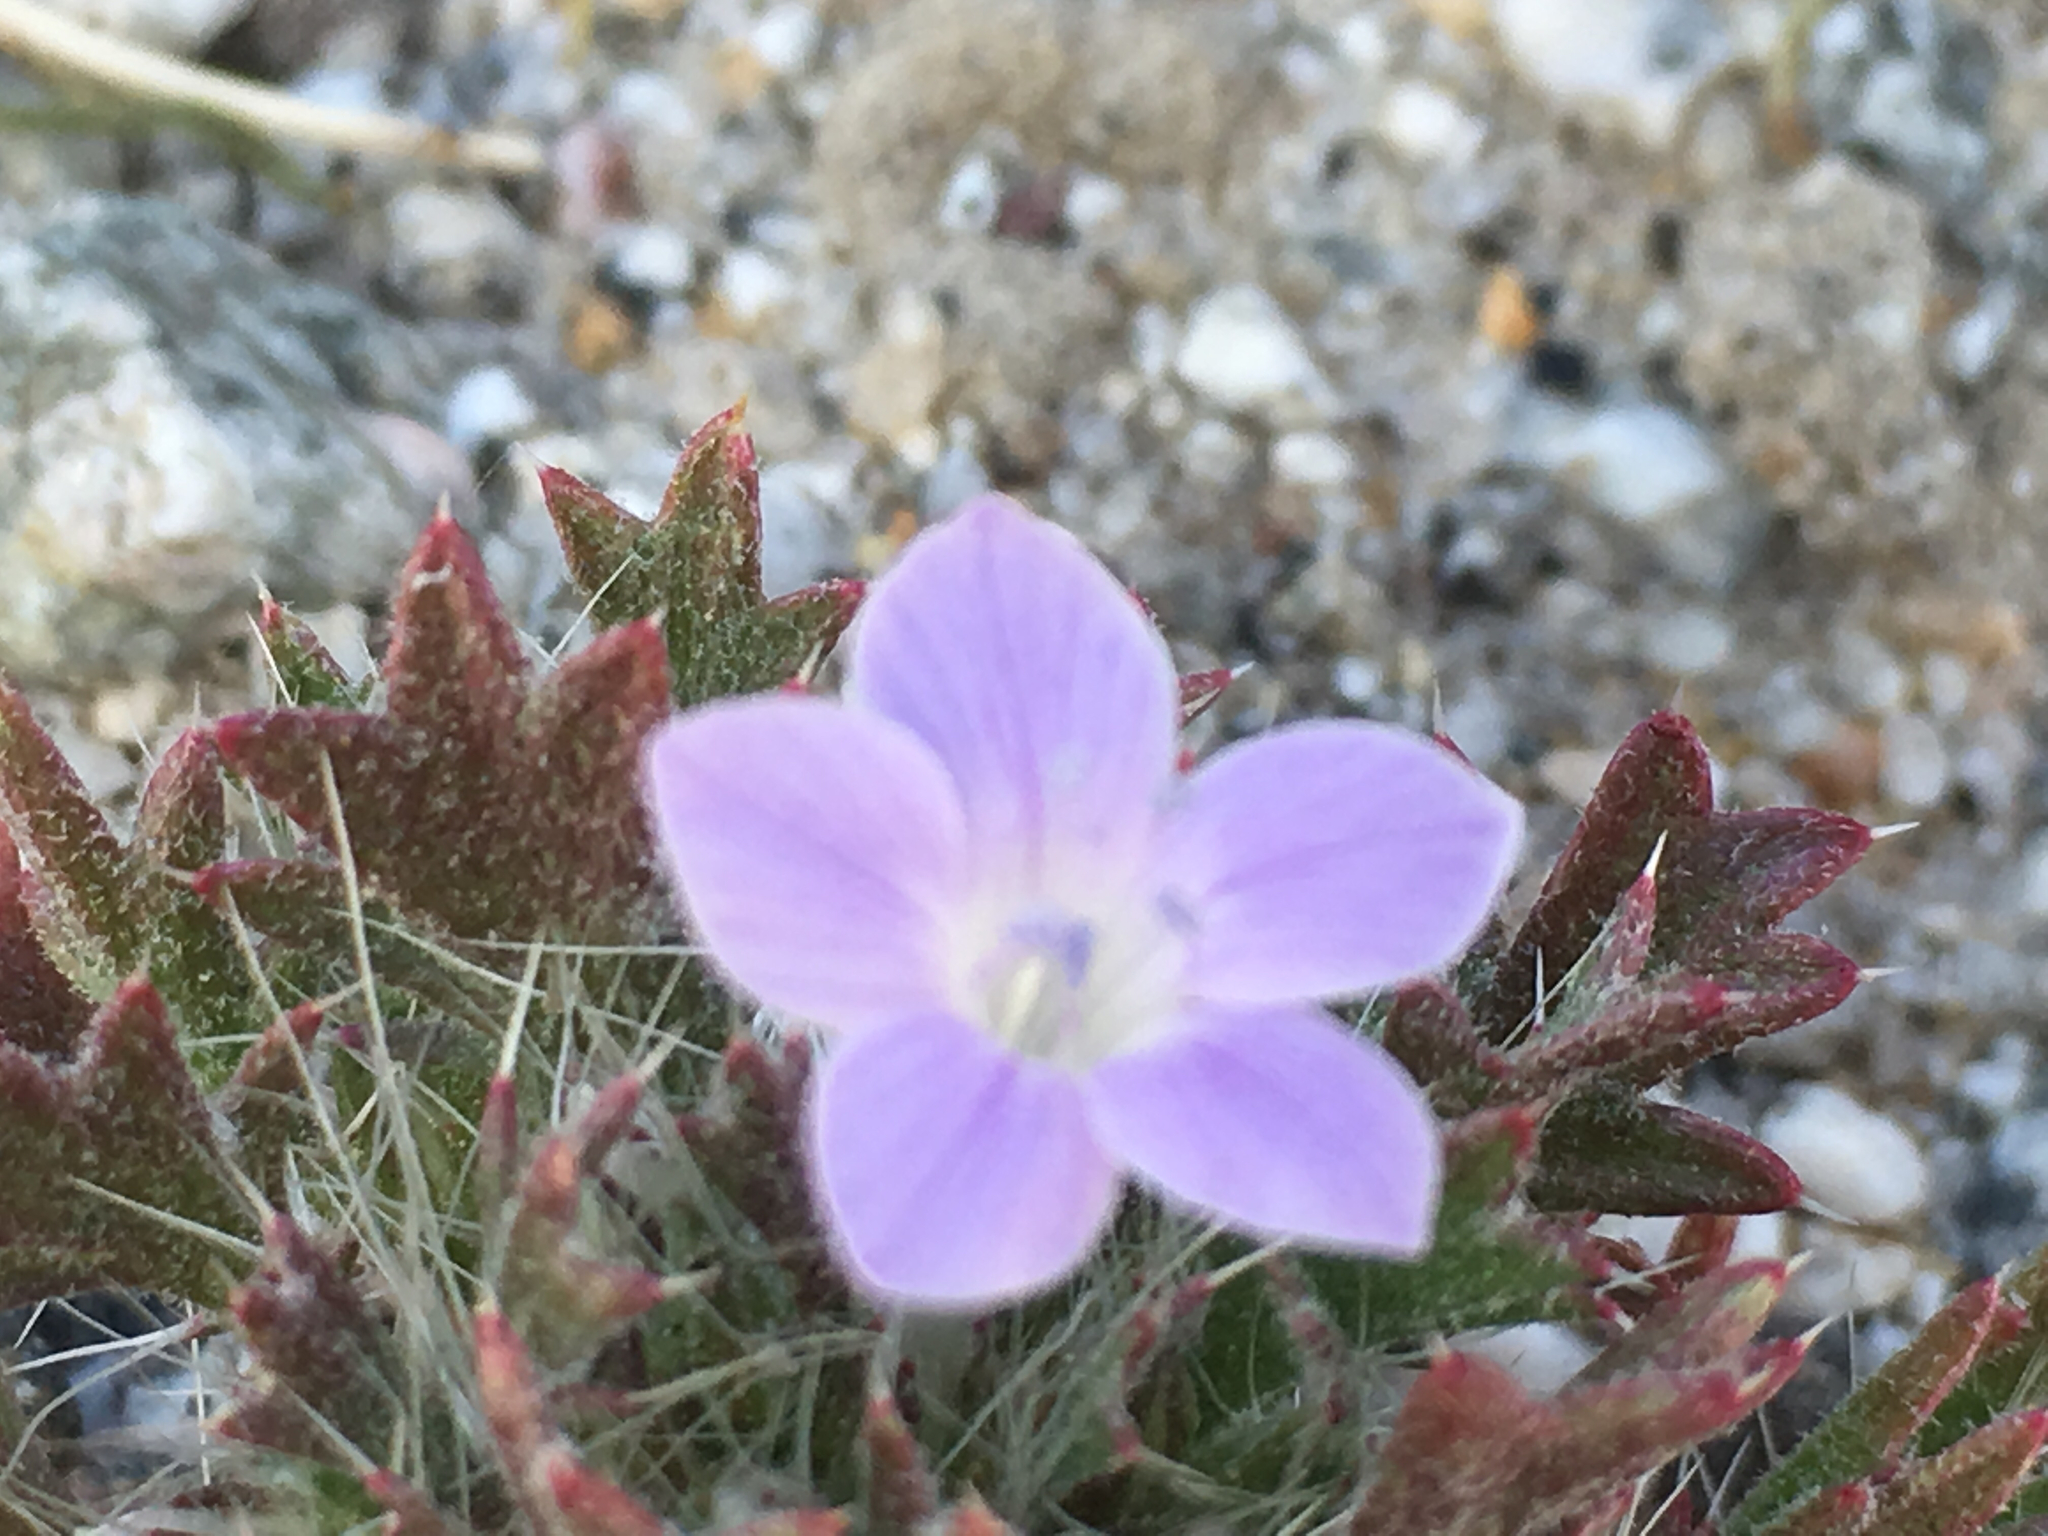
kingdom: Plantae
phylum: Tracheophyta
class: Magnoliopsida
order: Ericales
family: Polemoniaceae
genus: Langloisia
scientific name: Langloisia setosissima
